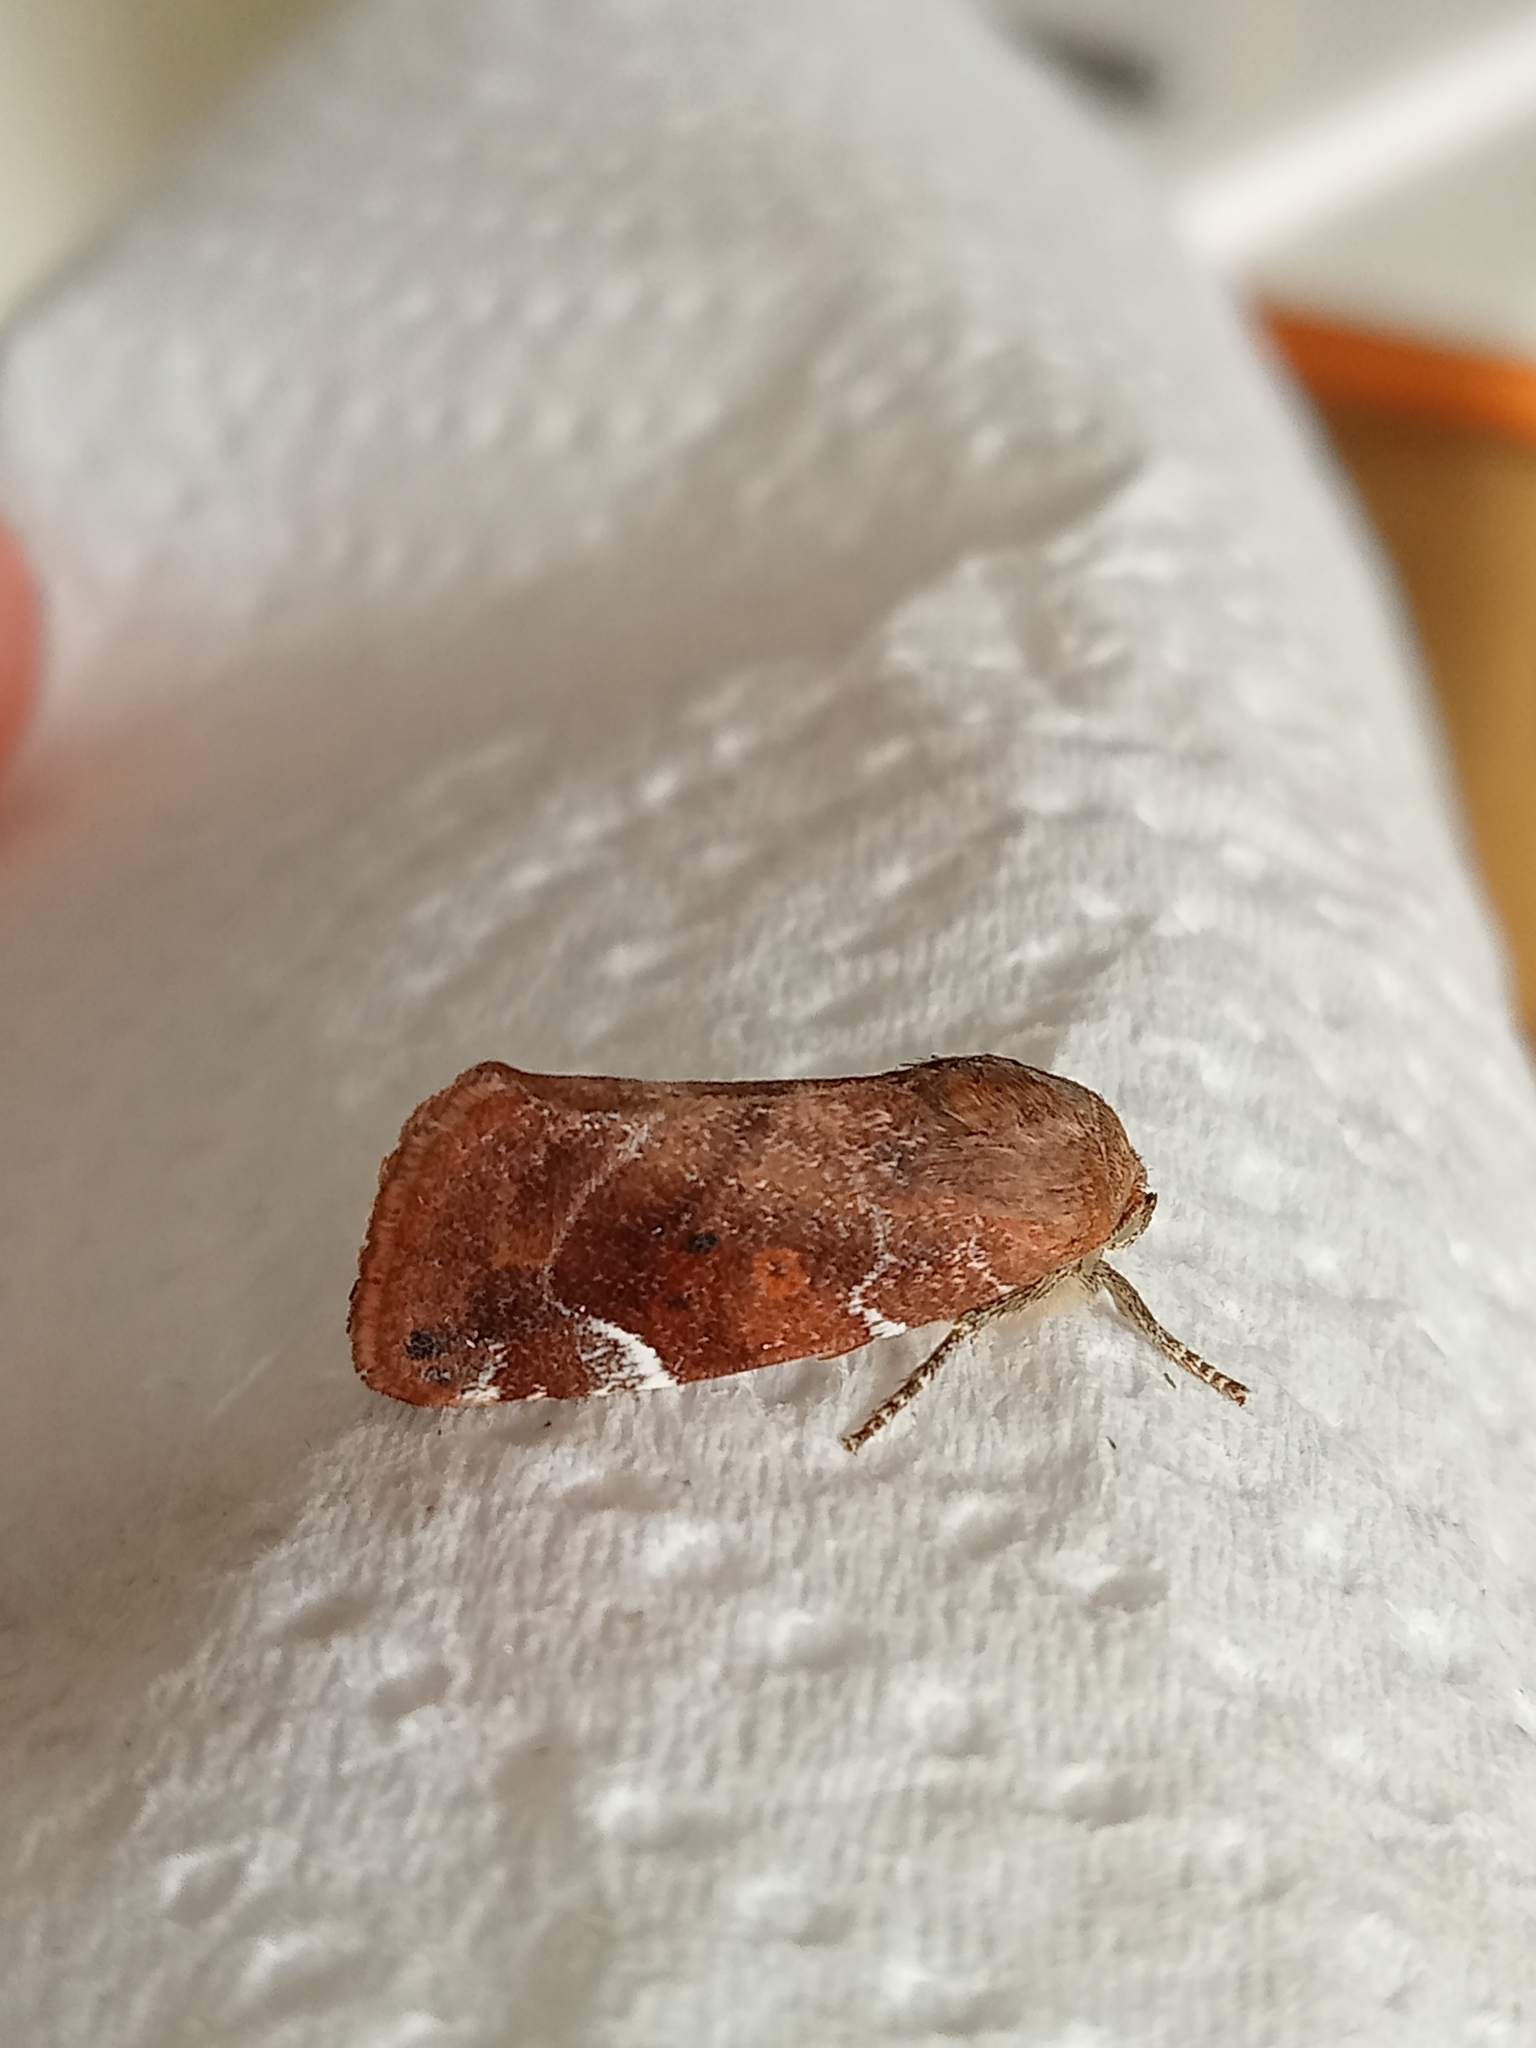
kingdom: Animalia
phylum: Arthropoda
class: Insecta
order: Lepidoptera
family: Noctuidae
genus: Cosmia
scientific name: Cosmia affinis
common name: Lesser-spotted pinion
